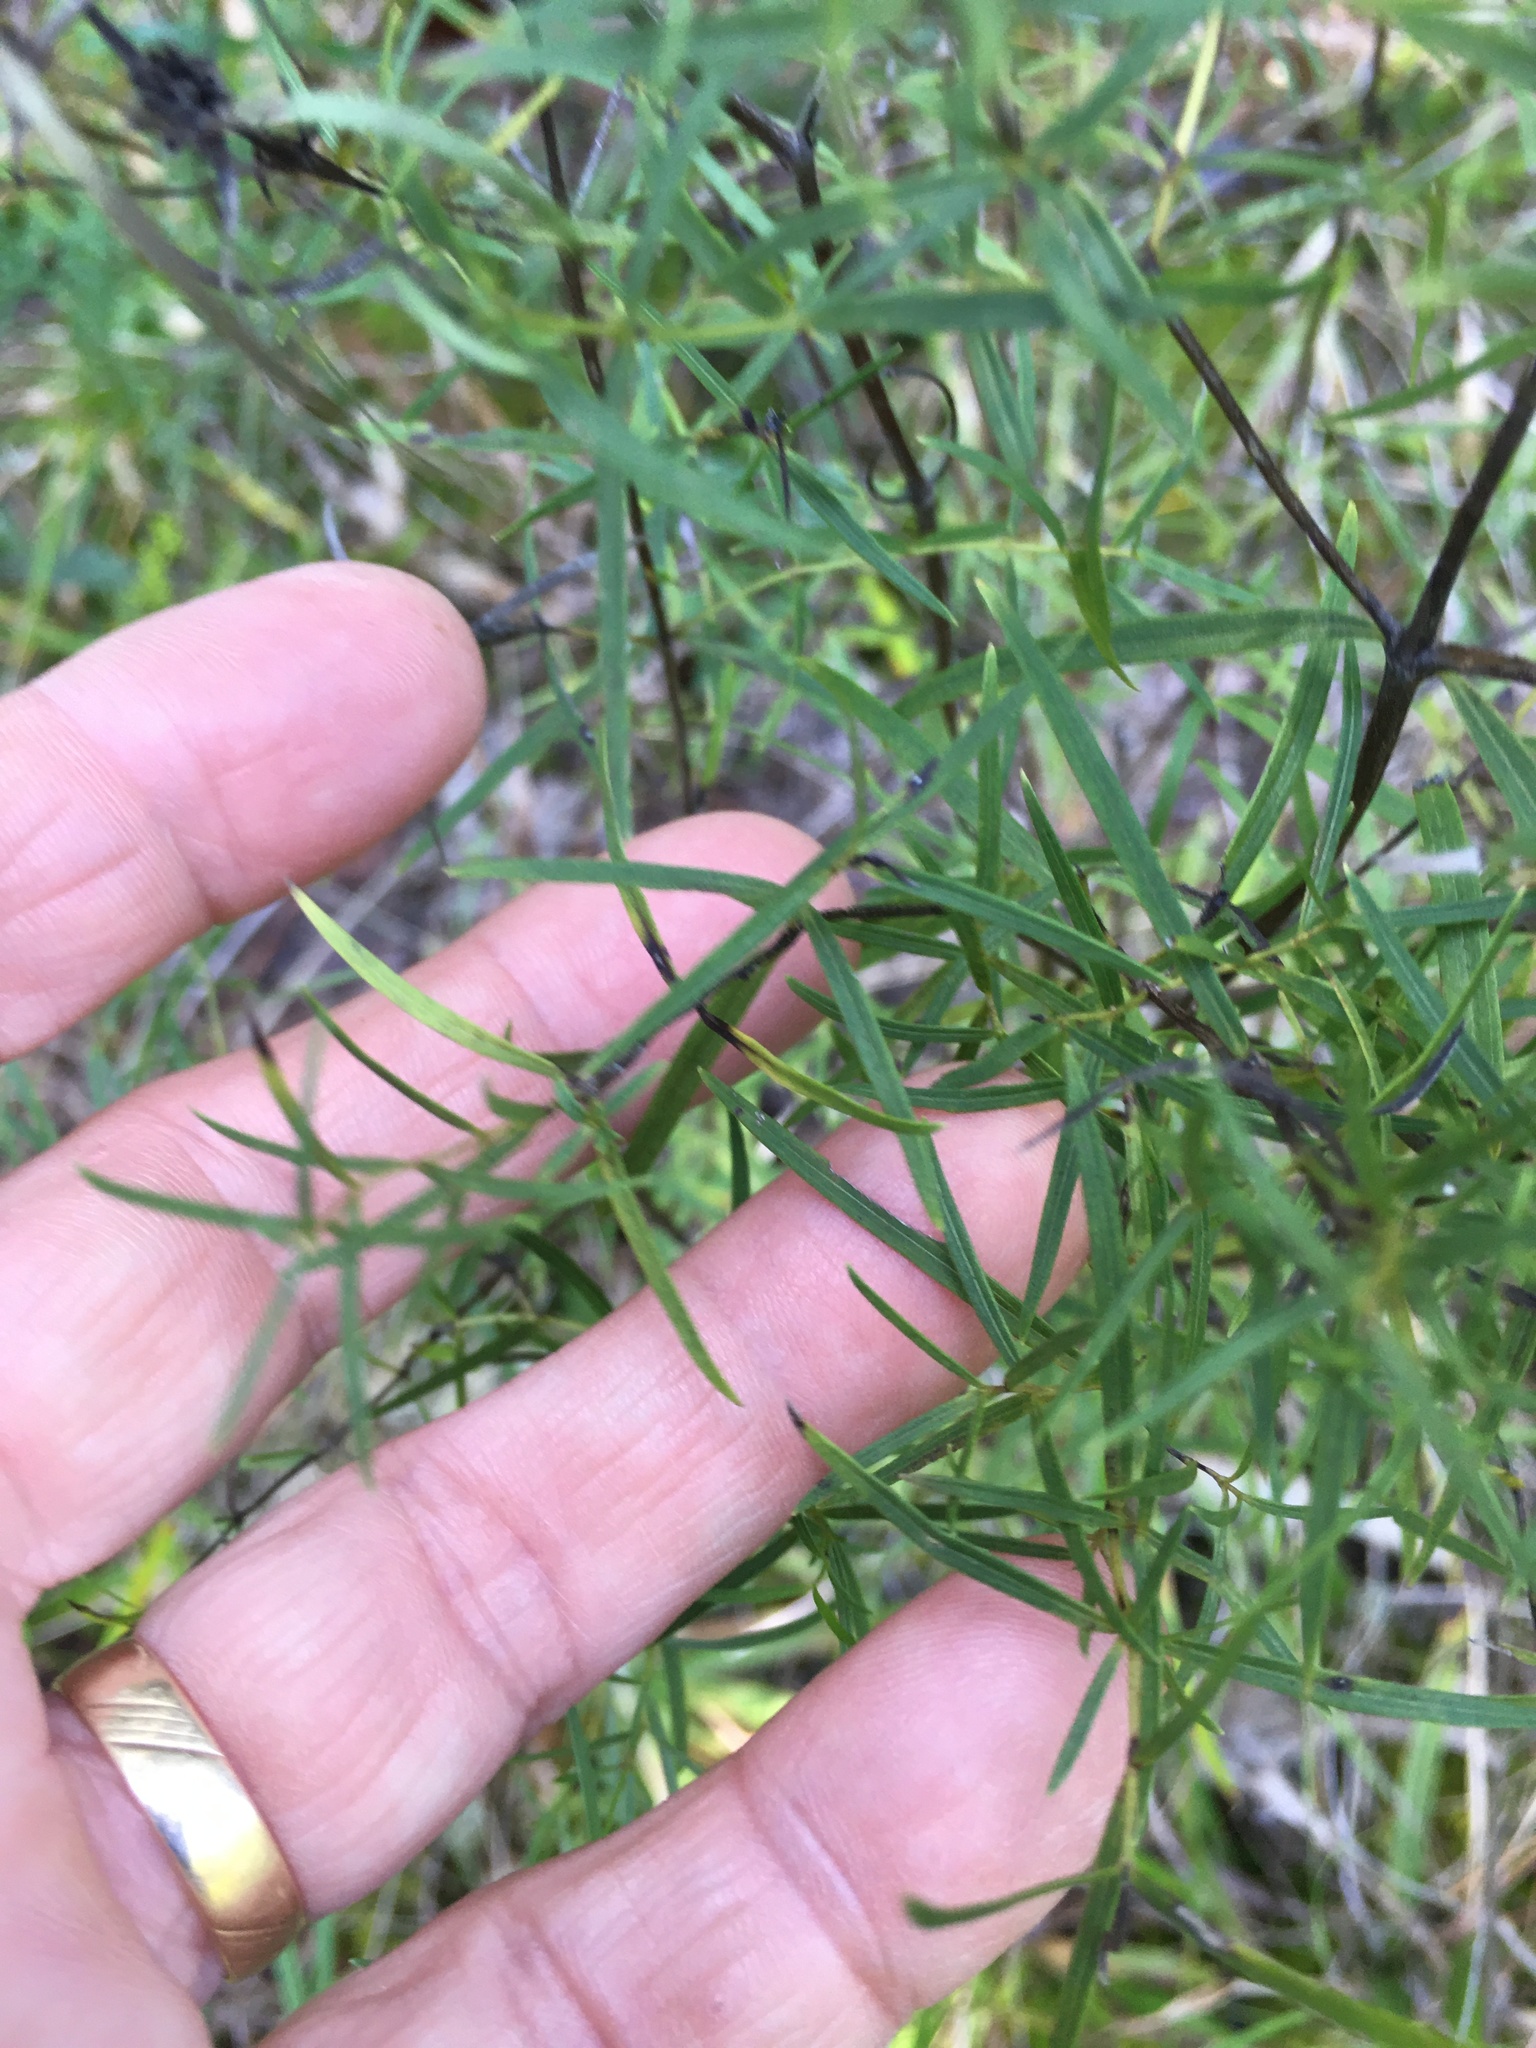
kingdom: Plantae
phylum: Tracheophyta
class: Magnoliopsida
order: Lamiales
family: Lamiaceae
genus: Pycnanthemum
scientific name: Pycnanthemum tenuifolium
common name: Narrow-leaf mountain-mint
